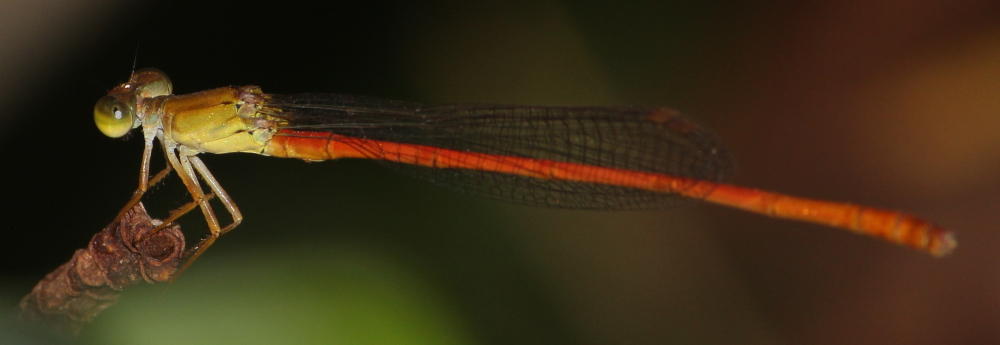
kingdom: Animalia
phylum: Arthropoda
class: Insecta
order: Odonata
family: Coenagrionidae
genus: Ceriagrion
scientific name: Ceriagrion glabrum
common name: Common pond damsel
